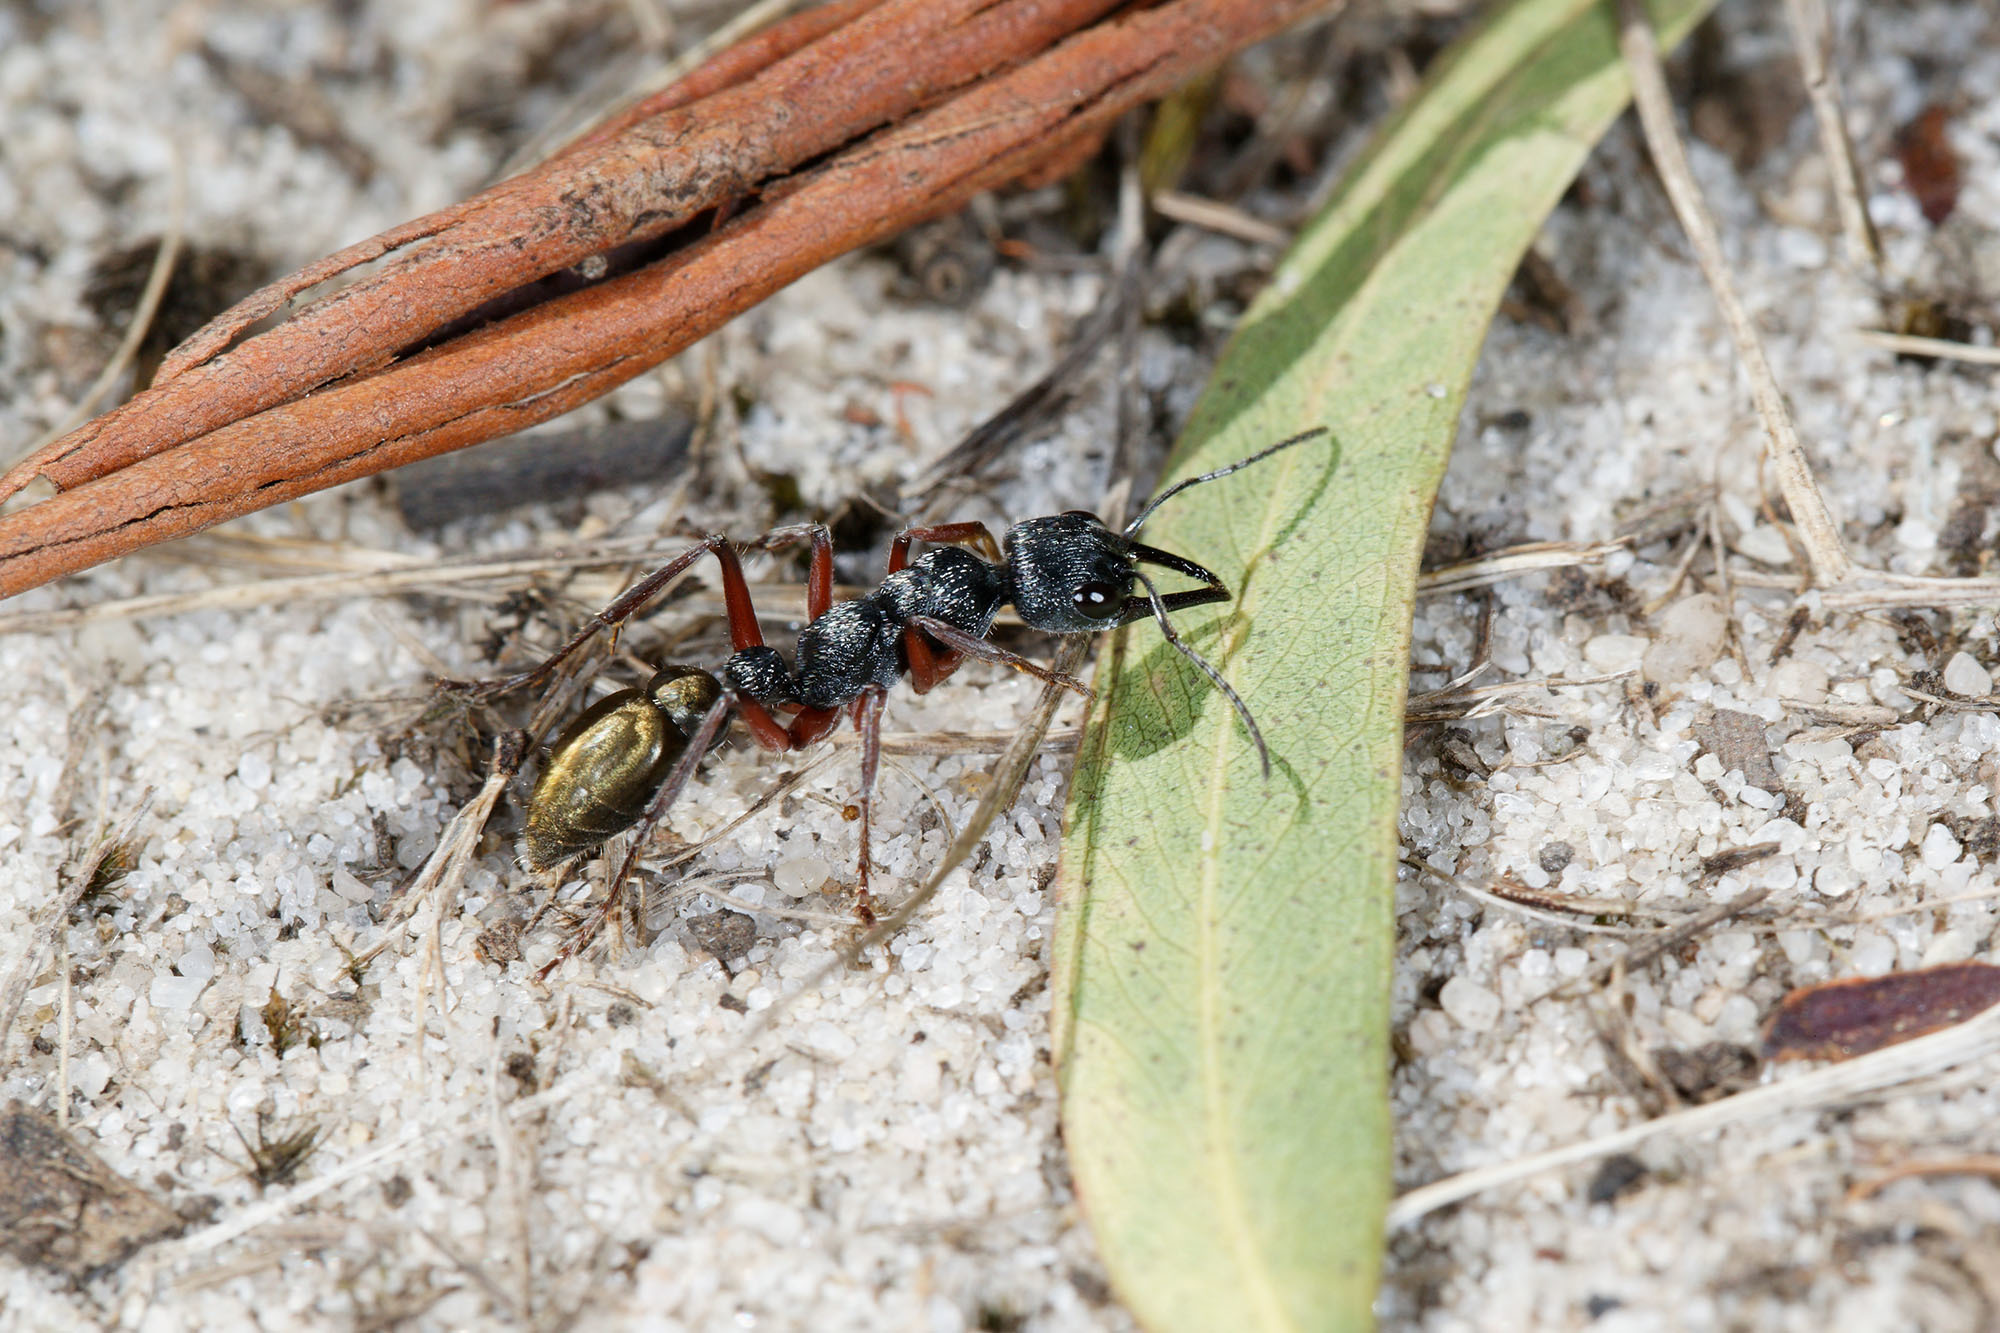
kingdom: Animalia
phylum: Arthropoda
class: Insecta
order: Hymenoptera
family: Formicidae
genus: Myrmecia
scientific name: Myrmecia fulvipes
